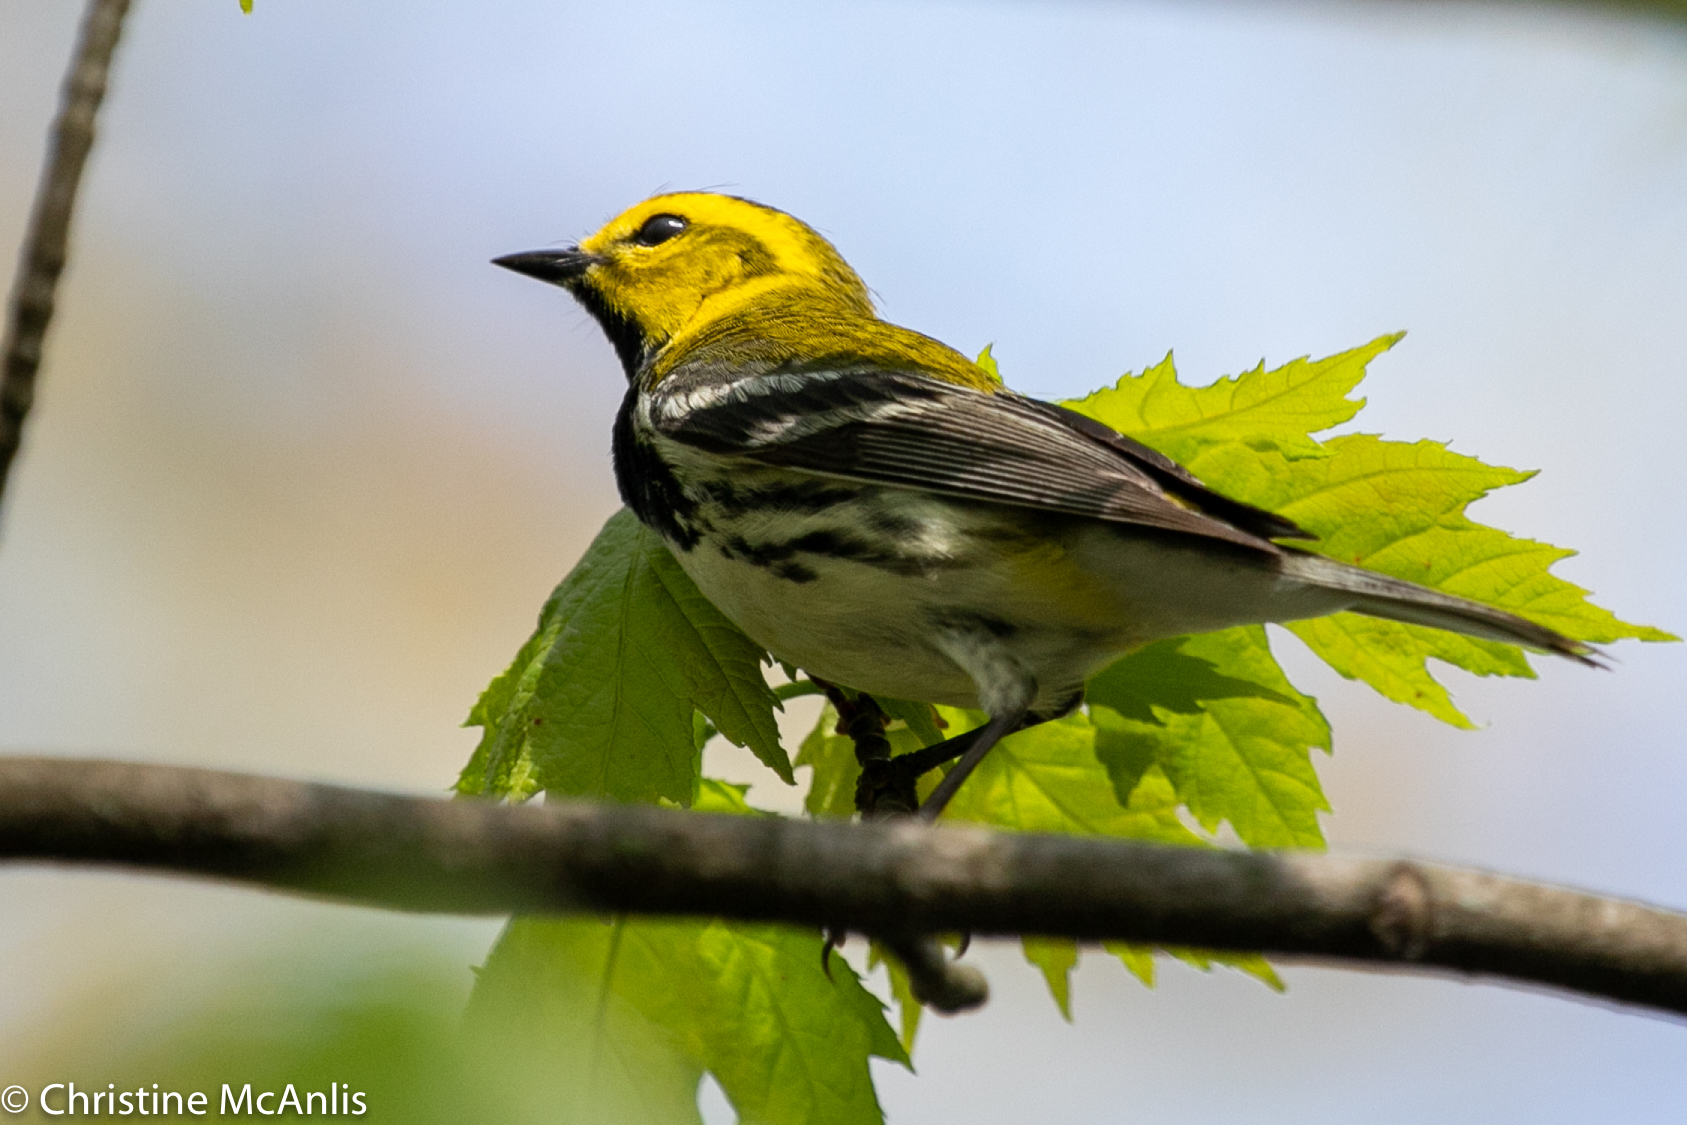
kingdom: Animalia
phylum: Chordata
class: Aves
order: Passeriformes
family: Parulidae
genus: Setophaga
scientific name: Setophaga virens
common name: Black-throated green warbler
